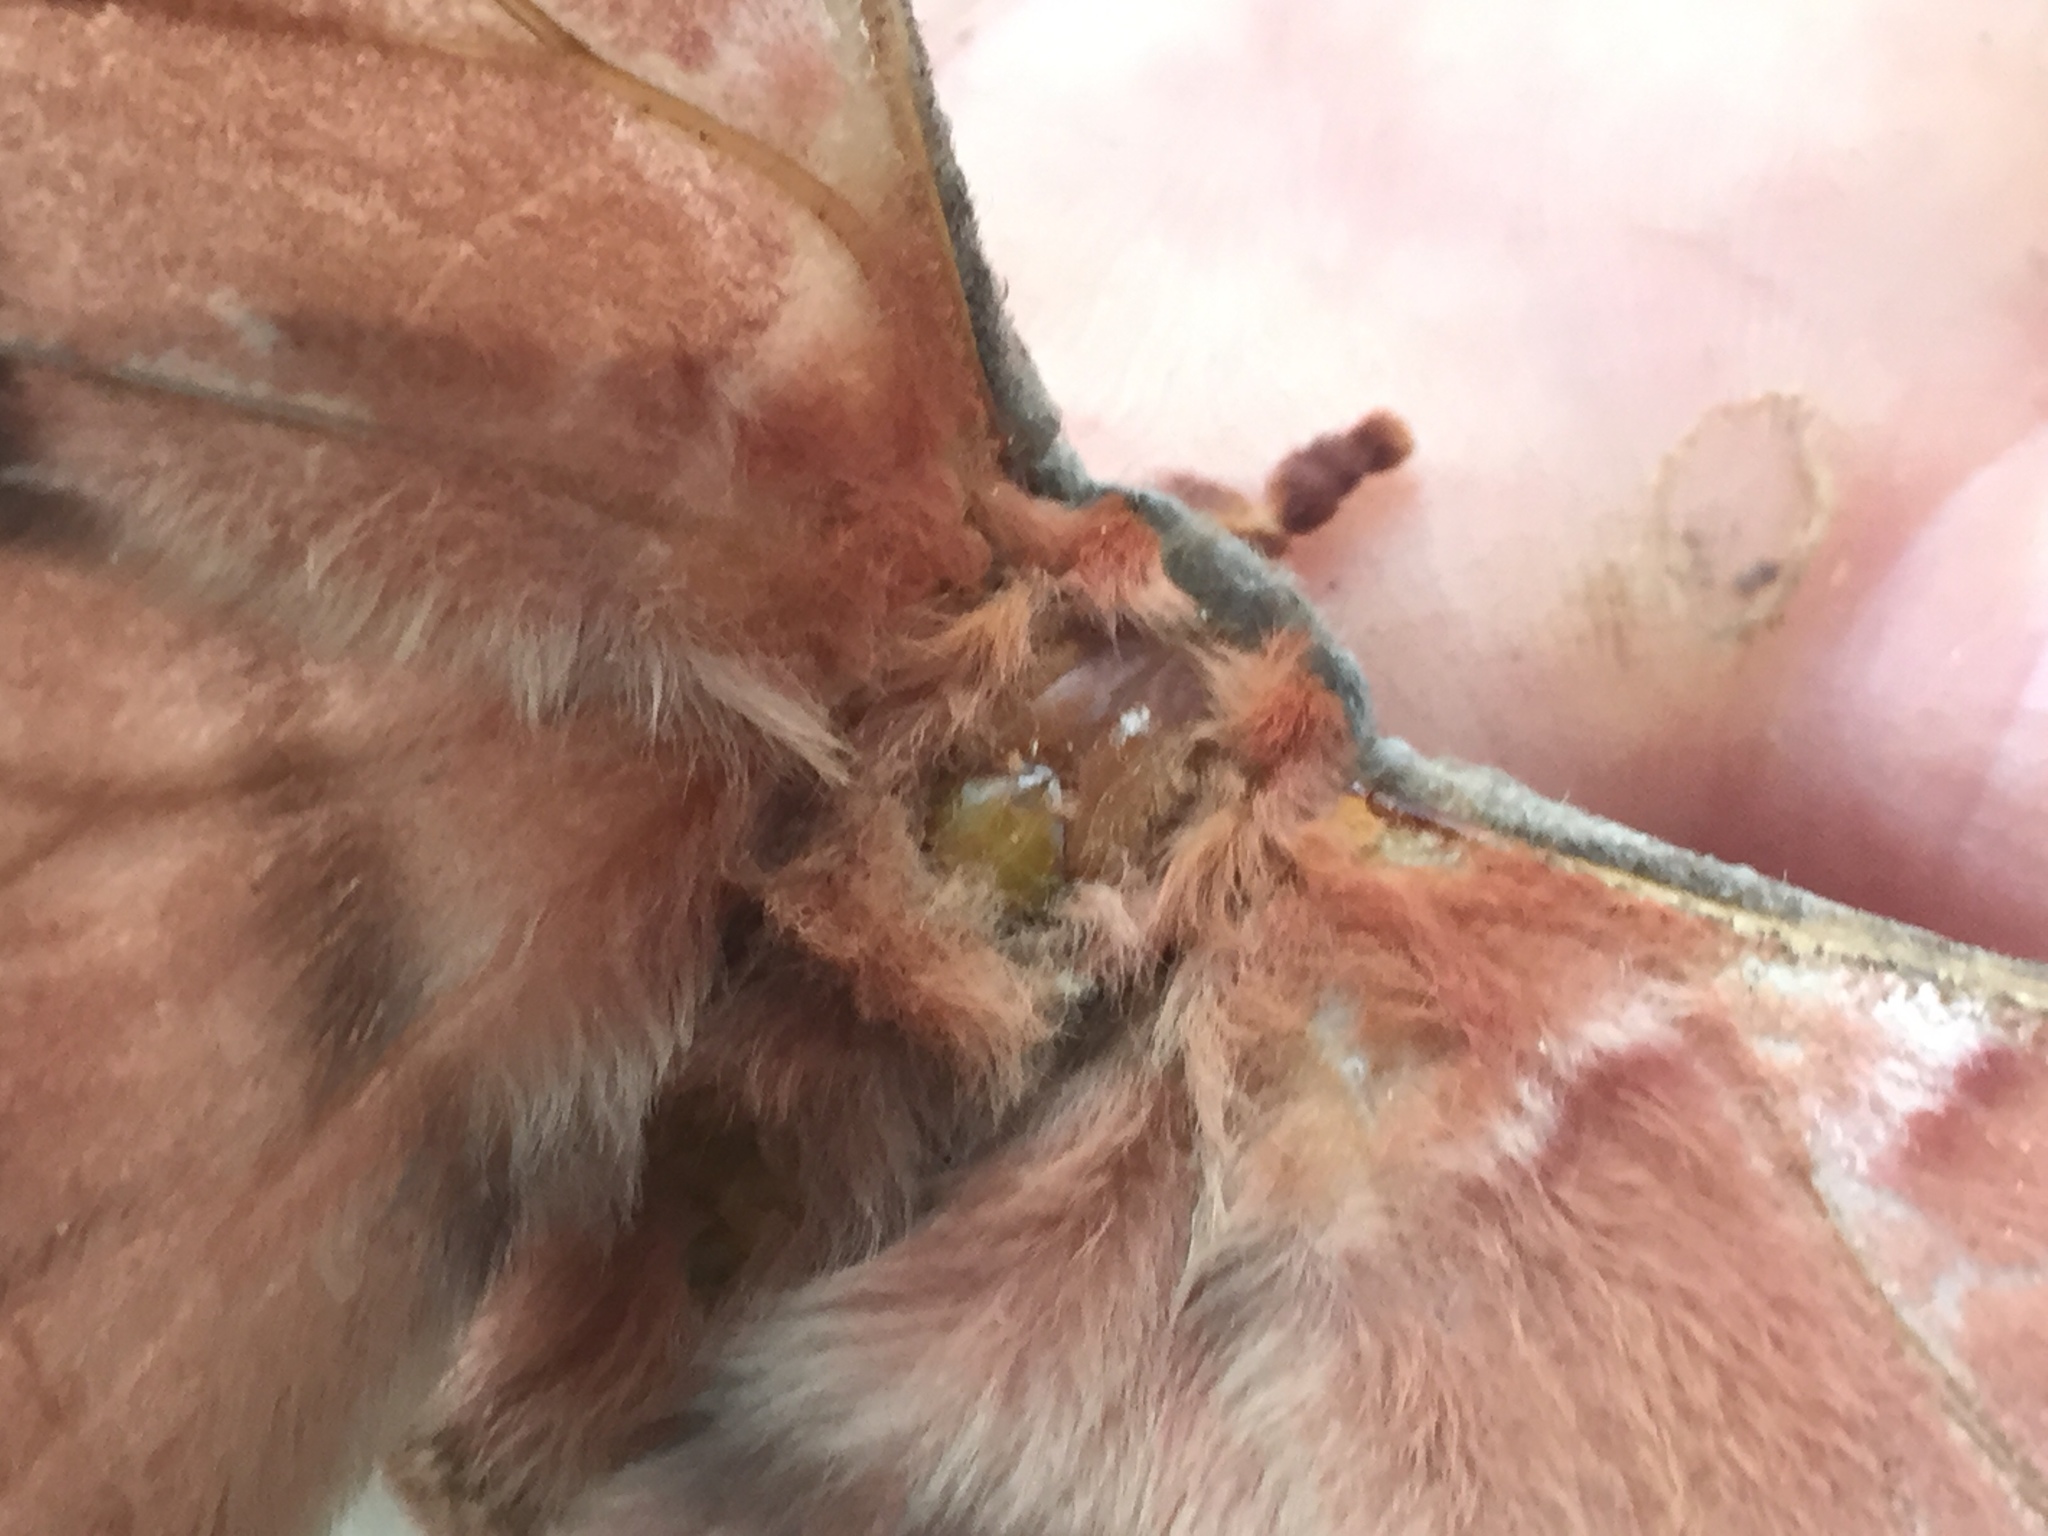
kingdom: Animalia
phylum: Arthropoda
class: Insecta
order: Lepidoptera
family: Saturniidae
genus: Opodiphthera
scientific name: Opodiphthera
